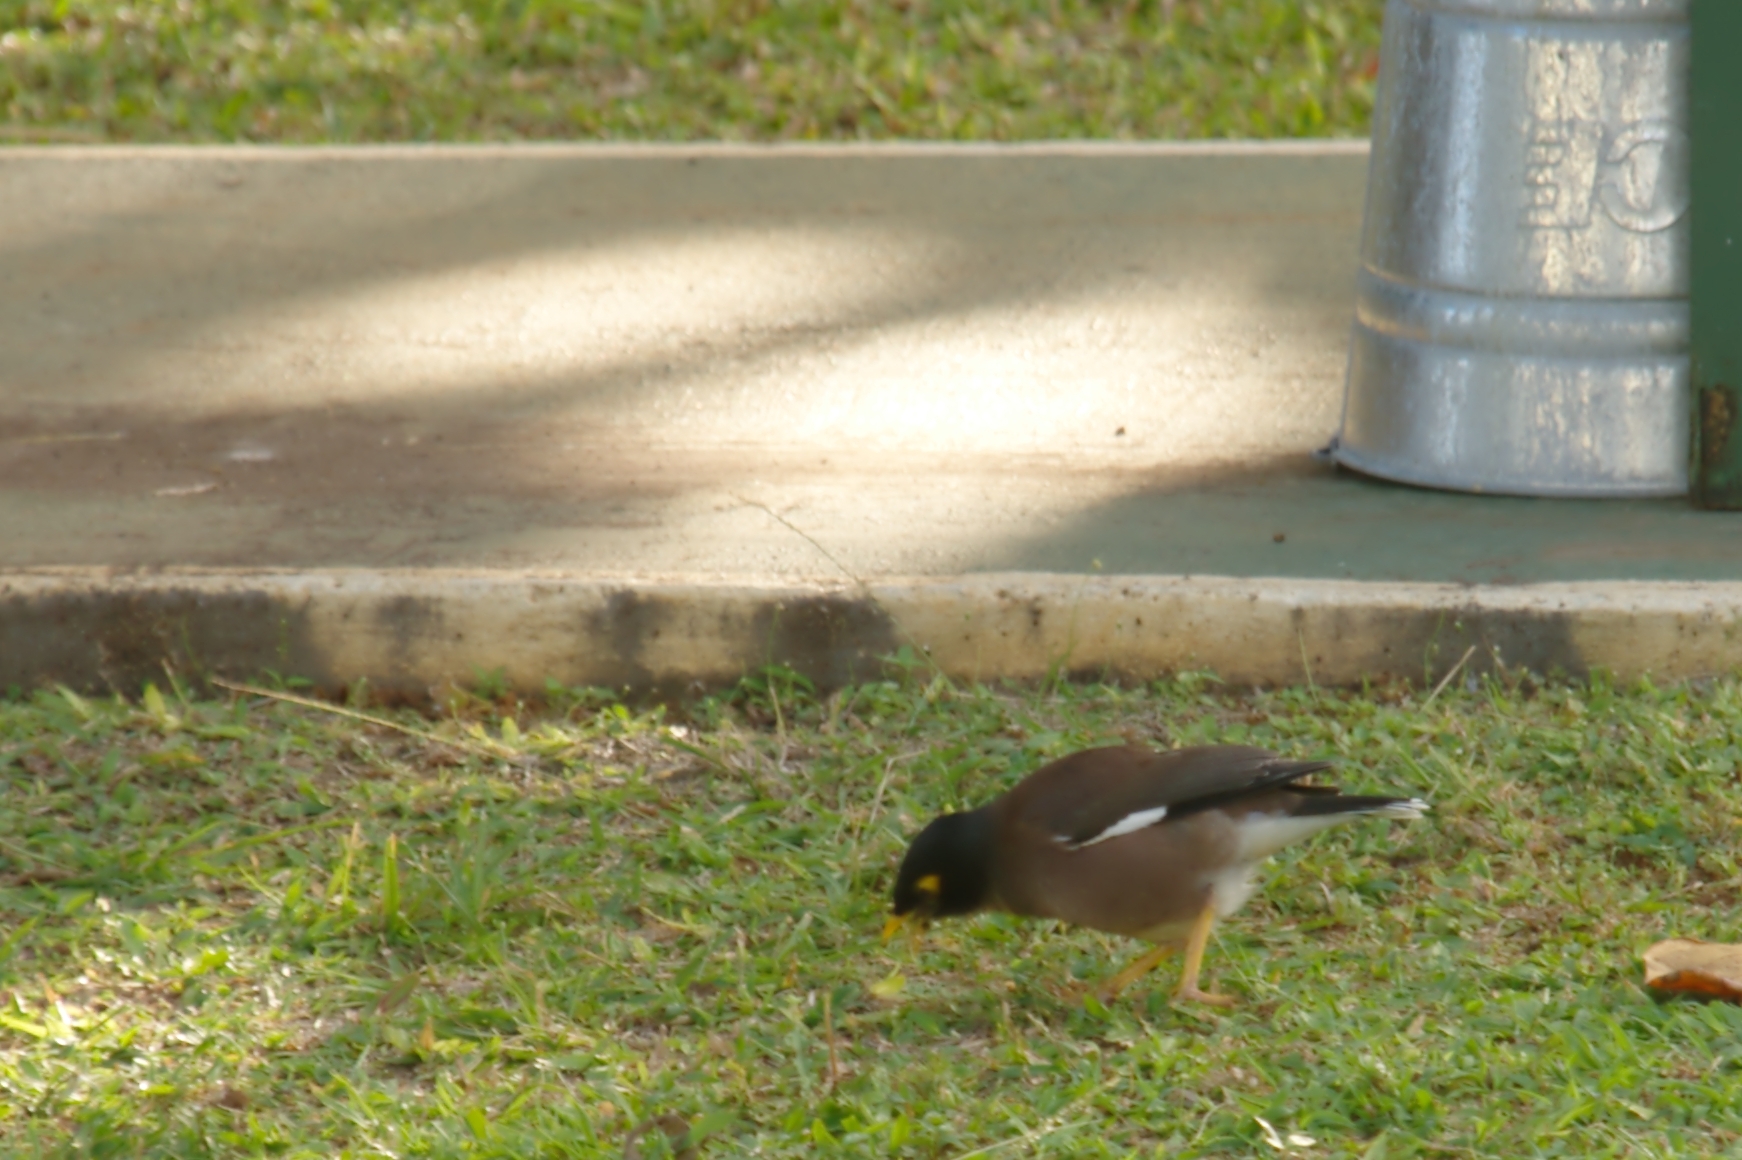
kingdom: Animalia
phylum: Chordata
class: Aves
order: Passeriformes
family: Sturnidae
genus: Acridotheres
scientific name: Acridotheres tristis
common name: Common myna
